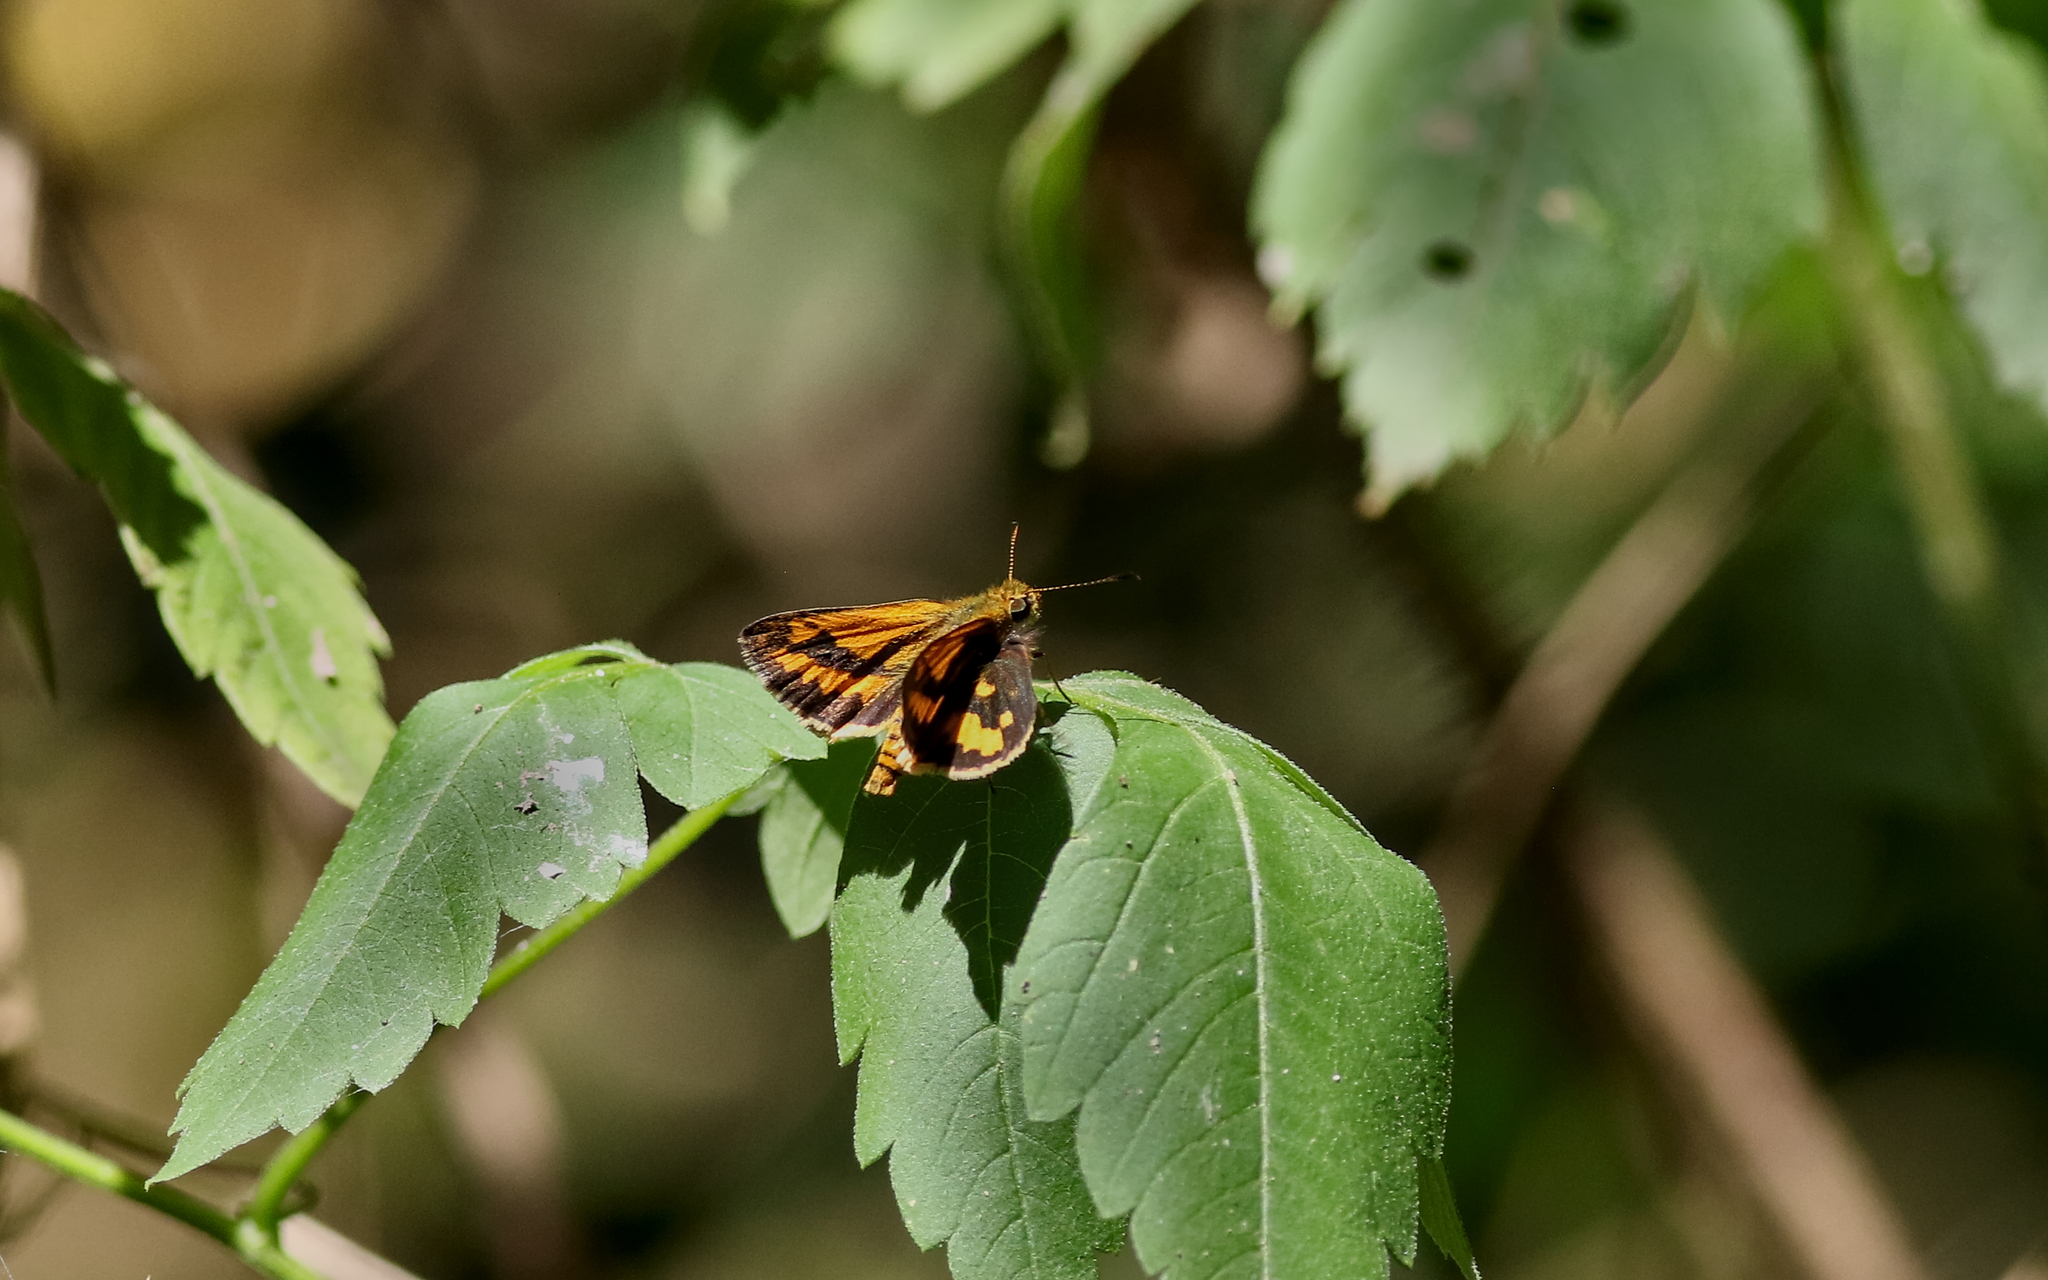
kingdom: Animalia
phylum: Arthropoda
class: Insecta
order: Lepidoptera
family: Hesperiidae
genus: Suniana
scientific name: Suniana sunias
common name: Wide-brand grass-dart
